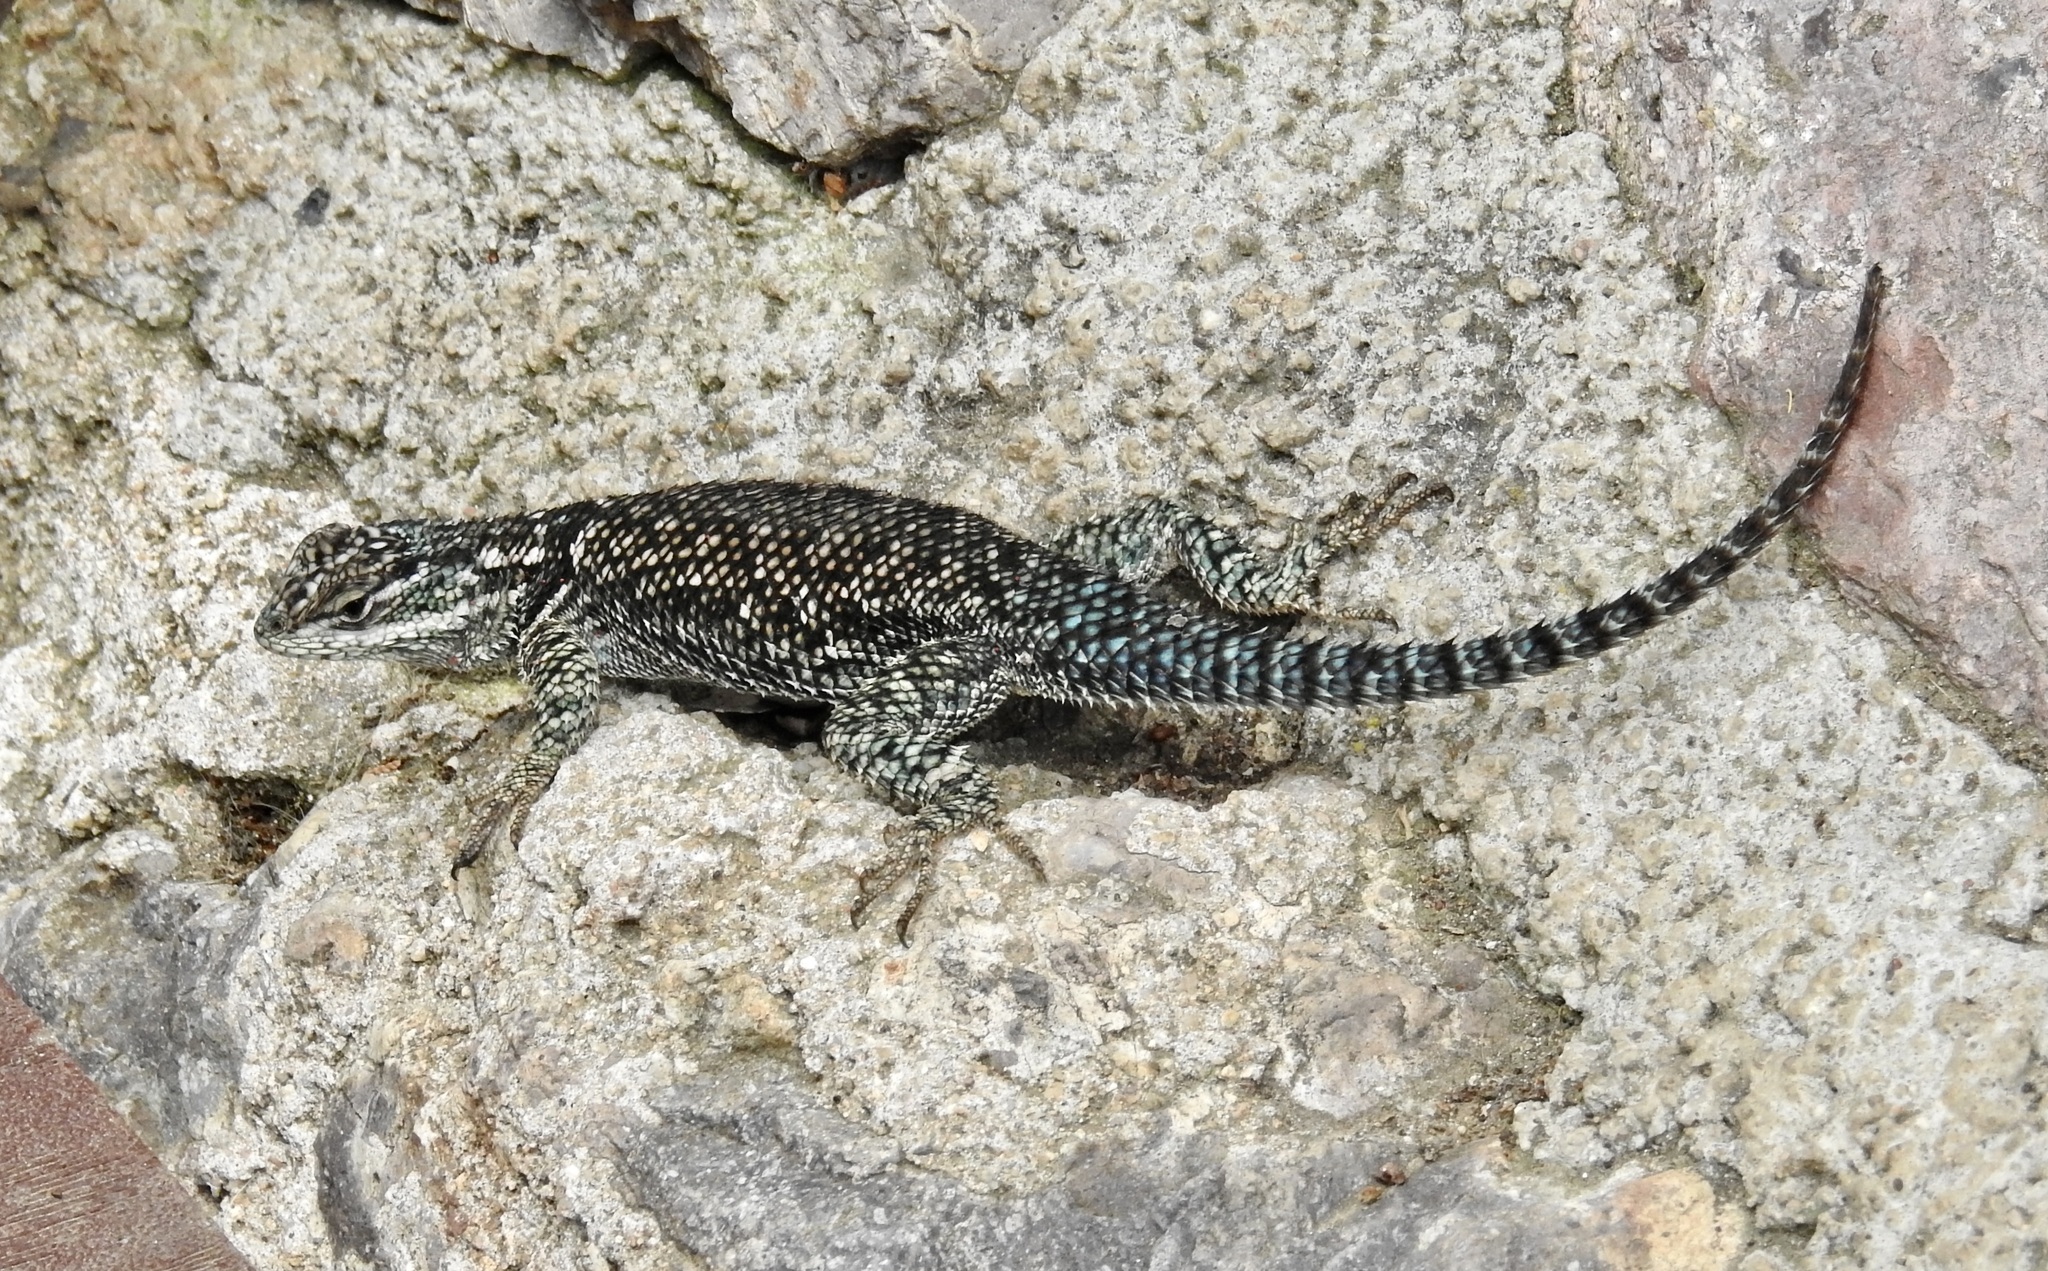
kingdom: Animalia
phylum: Chordata
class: Squamata
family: Phrynosomatidae
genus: Sceloporus
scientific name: Sceloporus jarrovii
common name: Yarrow's spiny lizard
